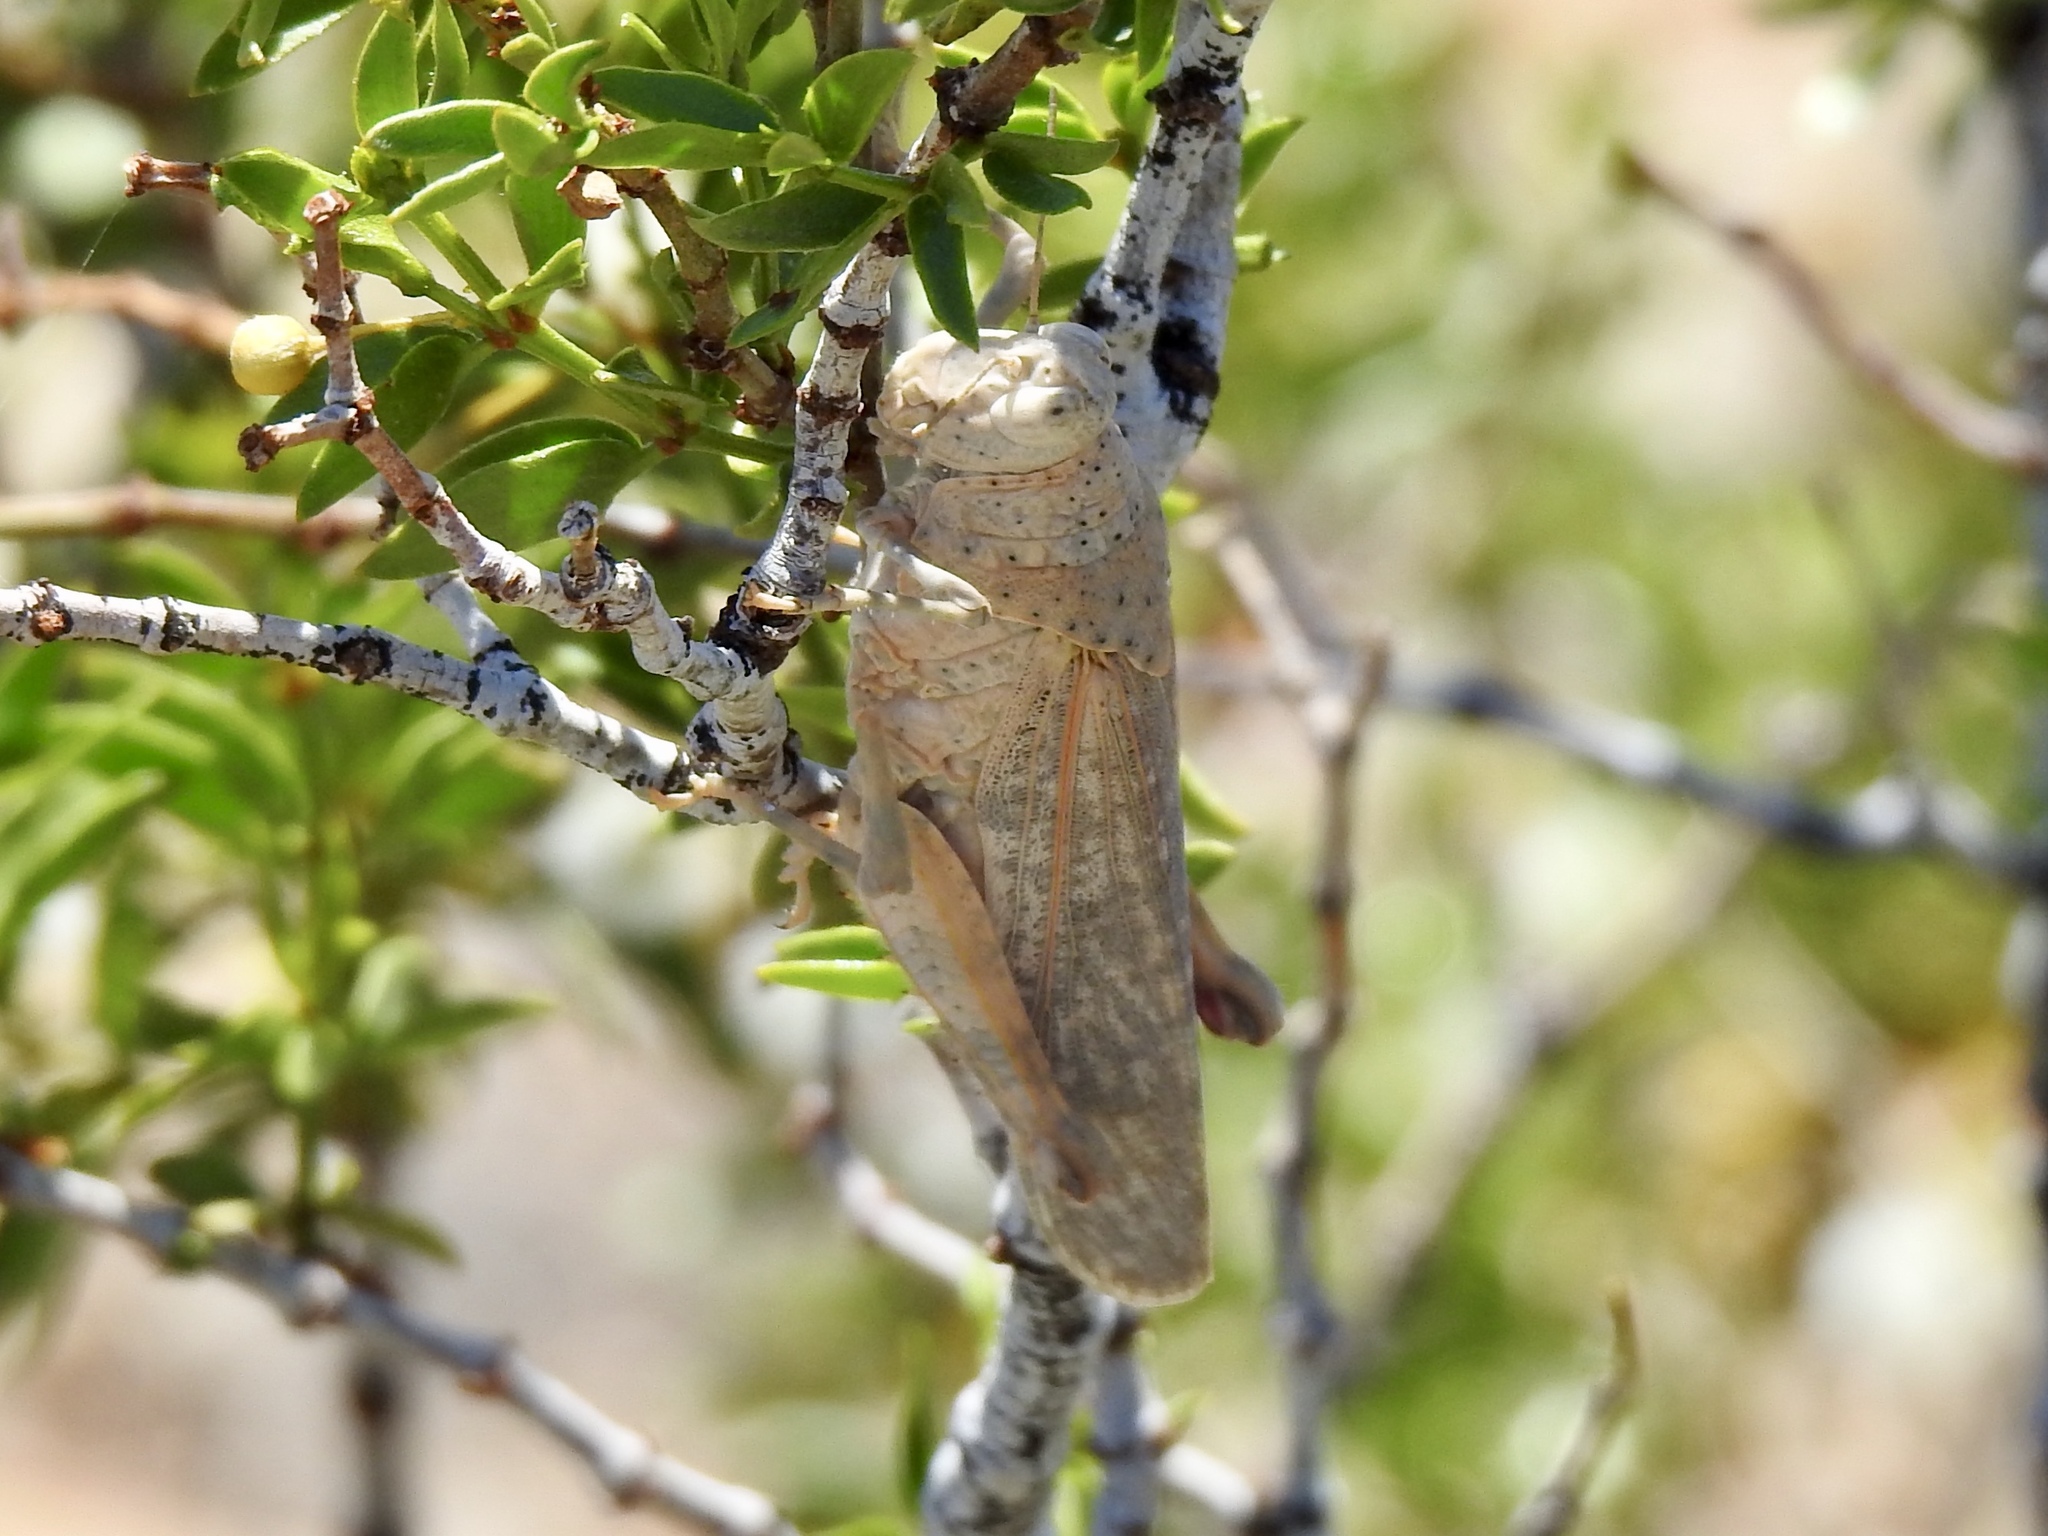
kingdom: Animalia
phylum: Arthropoda
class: Insecta
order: Orthoptera
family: Romaleidae
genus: Tytthotyle
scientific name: Tytthotyle maculata
